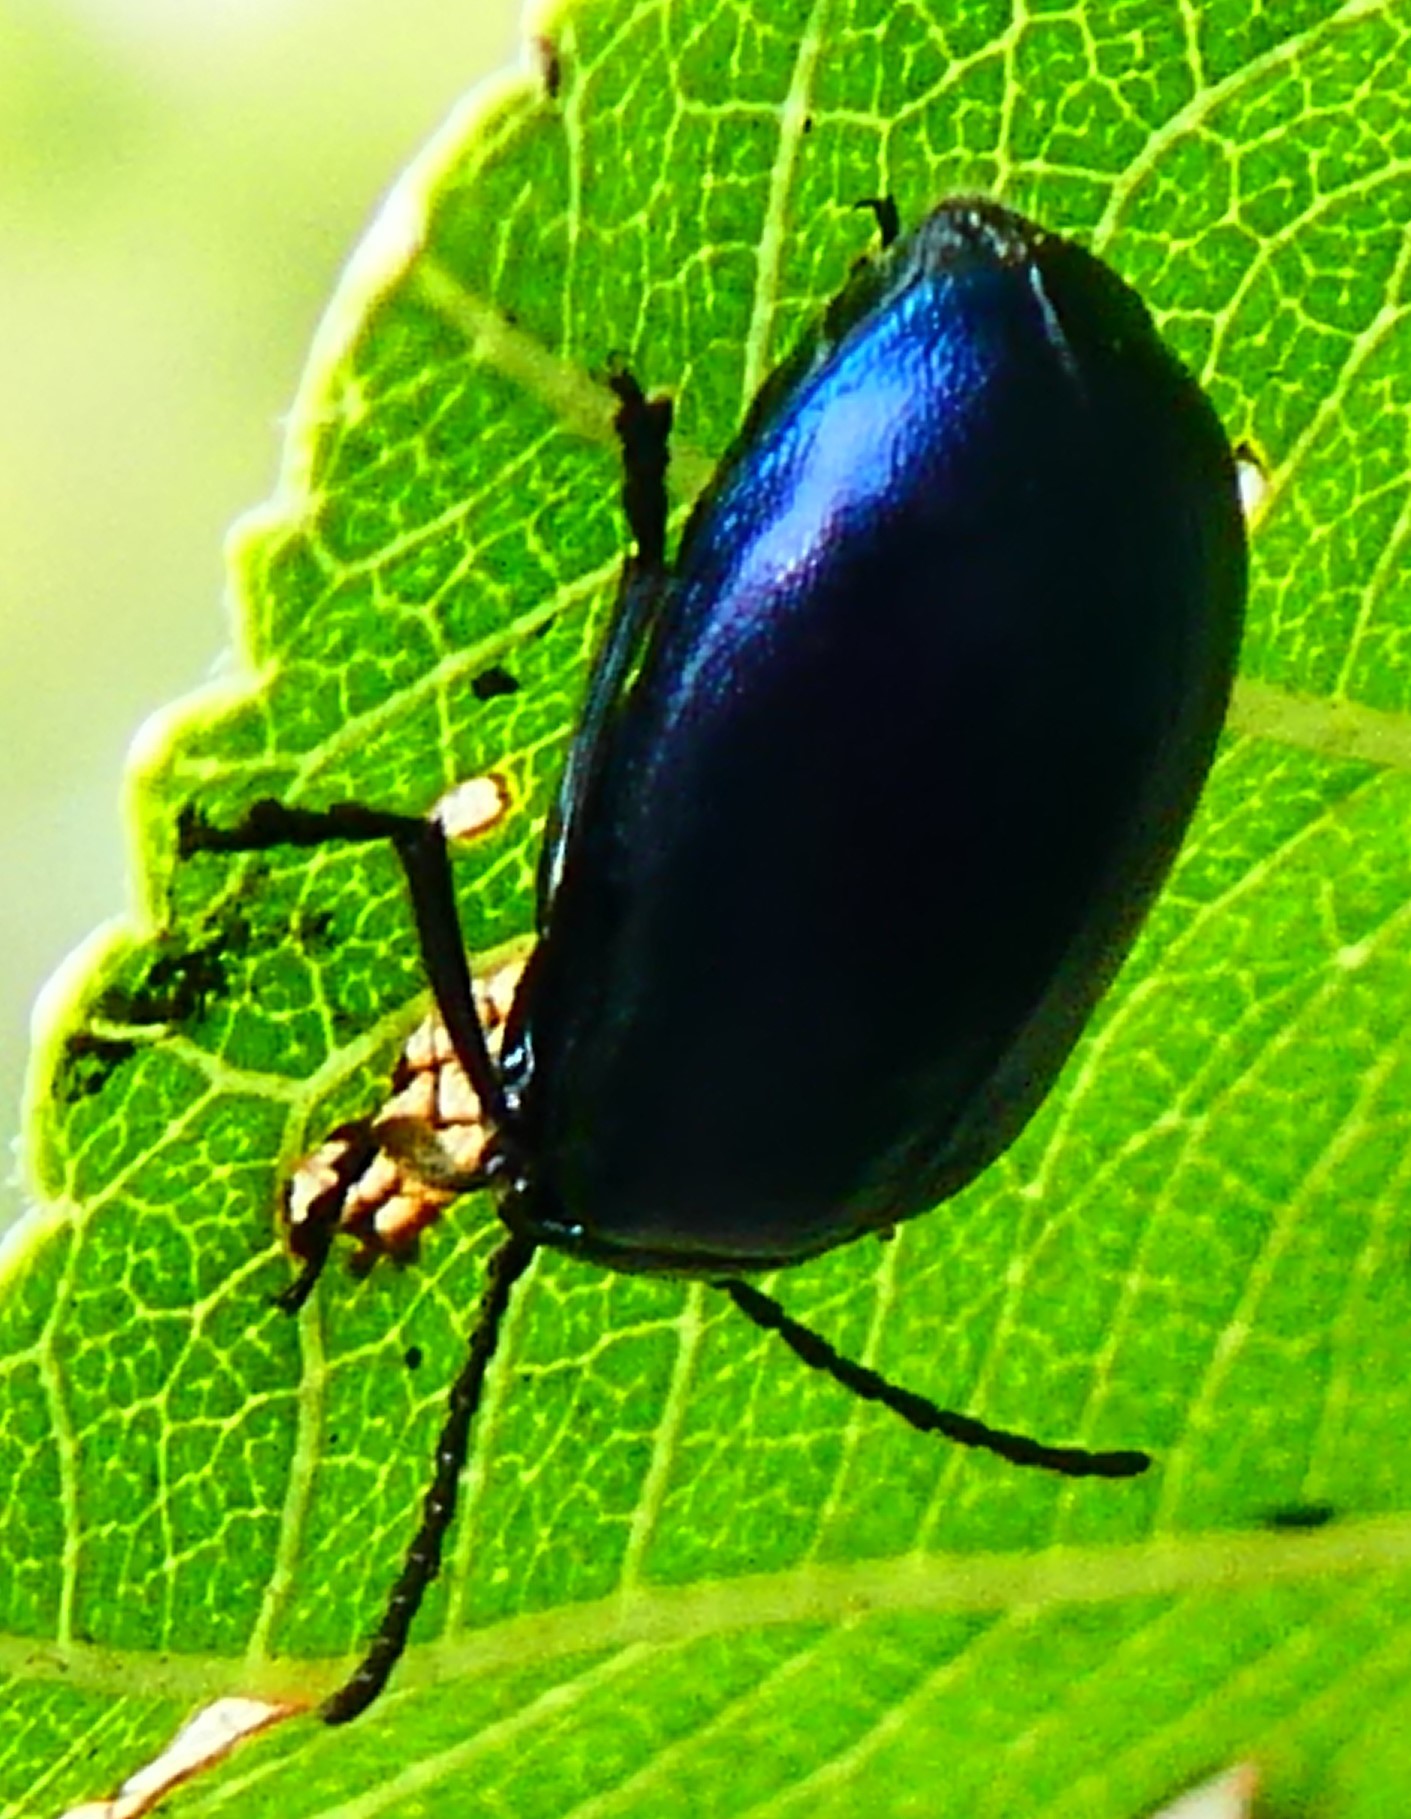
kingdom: Animalia
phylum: Arthropoda
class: Insecta
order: Coleoptera
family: Chrysomelidae
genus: Agelastica
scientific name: Agelastica alni
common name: Alder leaf beetle
